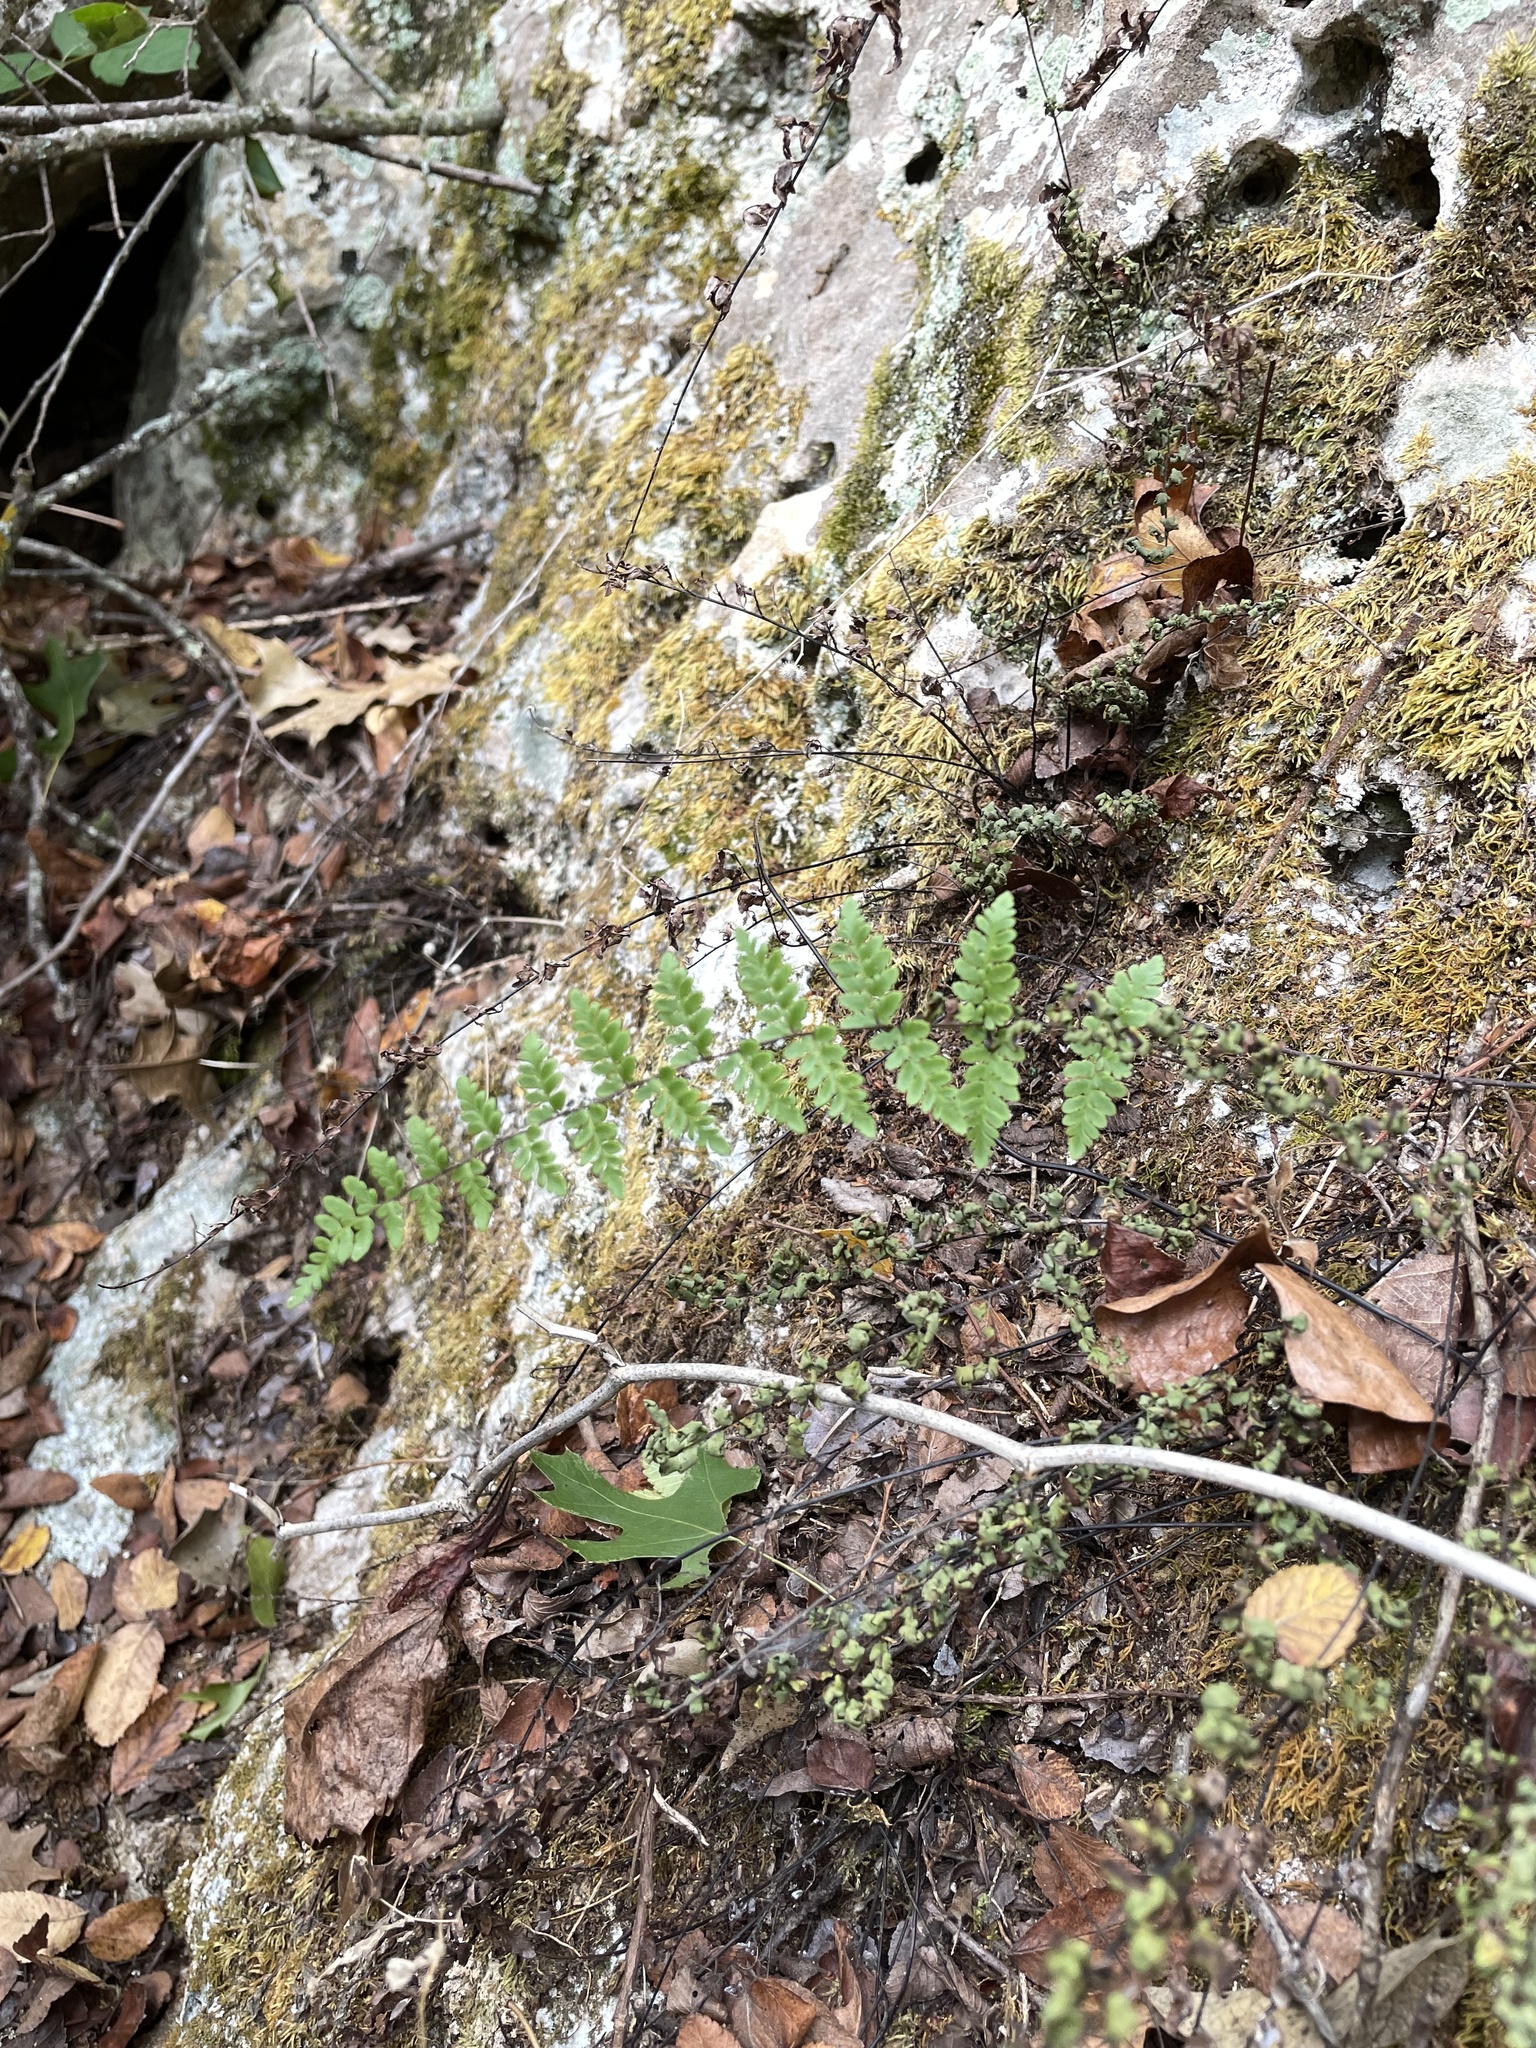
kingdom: Plantae
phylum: Tracheophyta
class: Polypodiopsida
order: Polypodiales
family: Pteridaceae
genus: Myriopteris
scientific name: Myriopteris alabamensis
